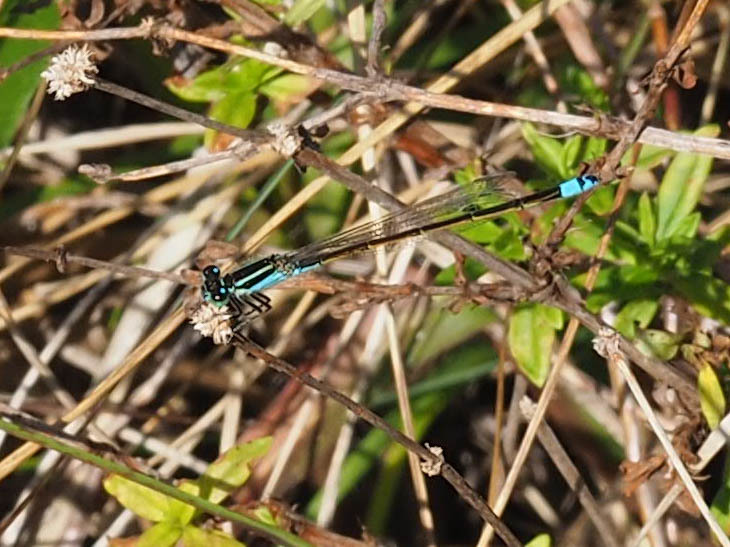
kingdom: Animalia
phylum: Arthropoda
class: Insecta
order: Odonata
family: Coenagrionidae
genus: Ischnura
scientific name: Ischnura ramburii
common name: Rambur's forktail
